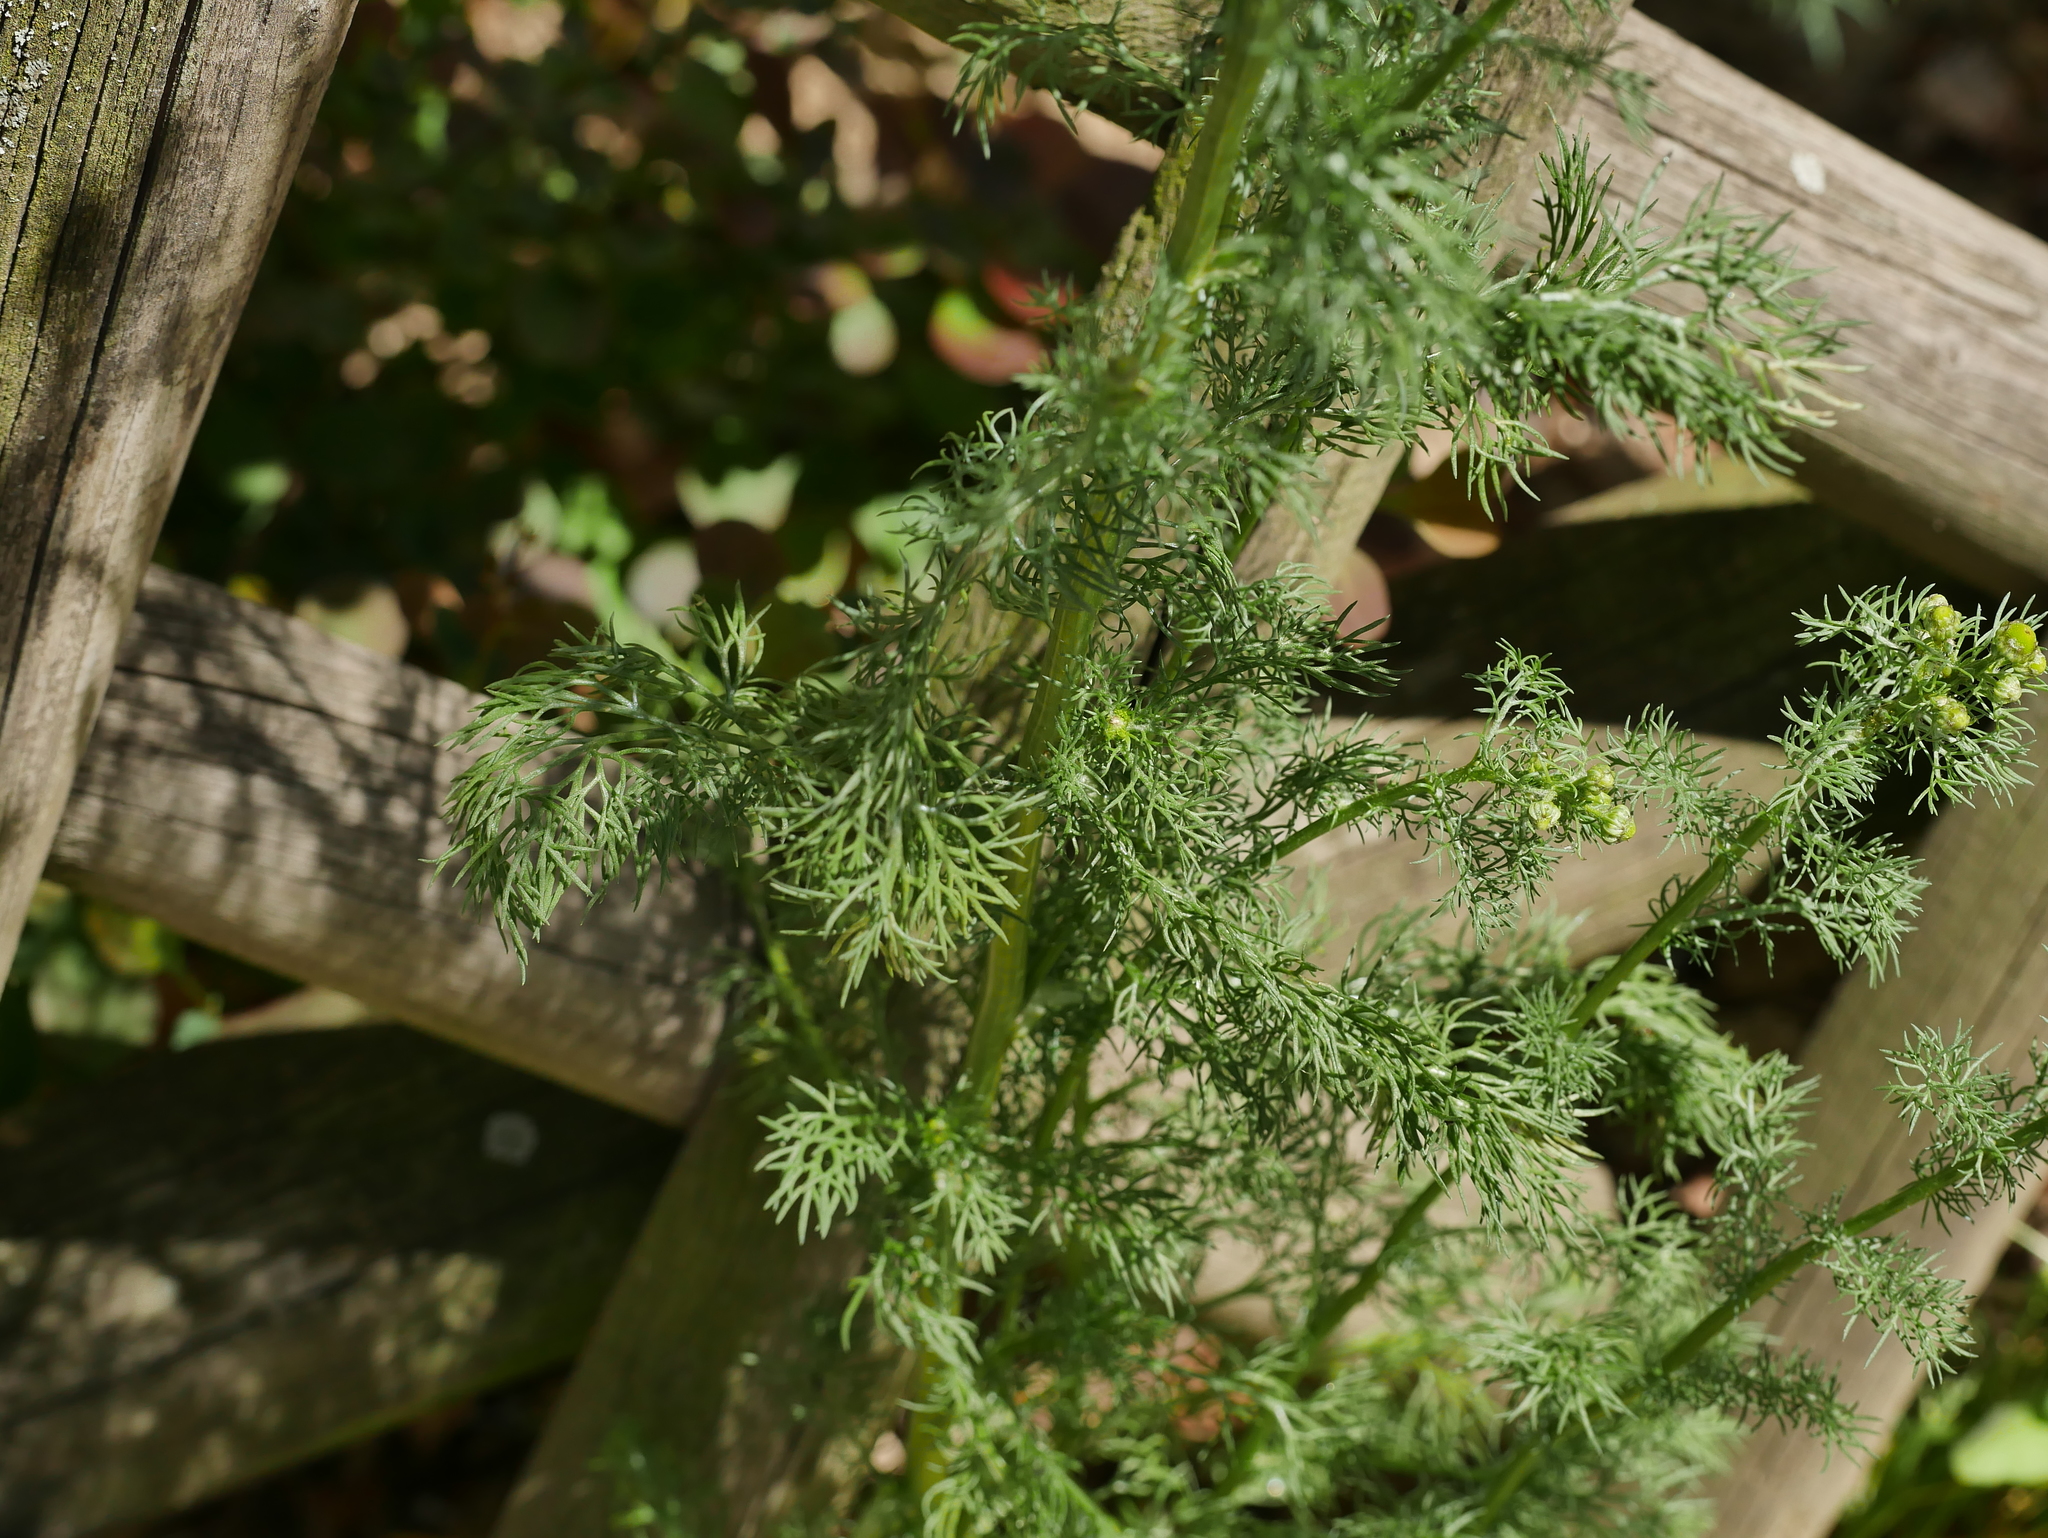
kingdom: Plantae
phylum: Tracheophyta
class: Magnoliopsida
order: Asterales
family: Asteraceae
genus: Matricaria
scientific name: Matricaria chamomilla
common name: Scented mayweed
